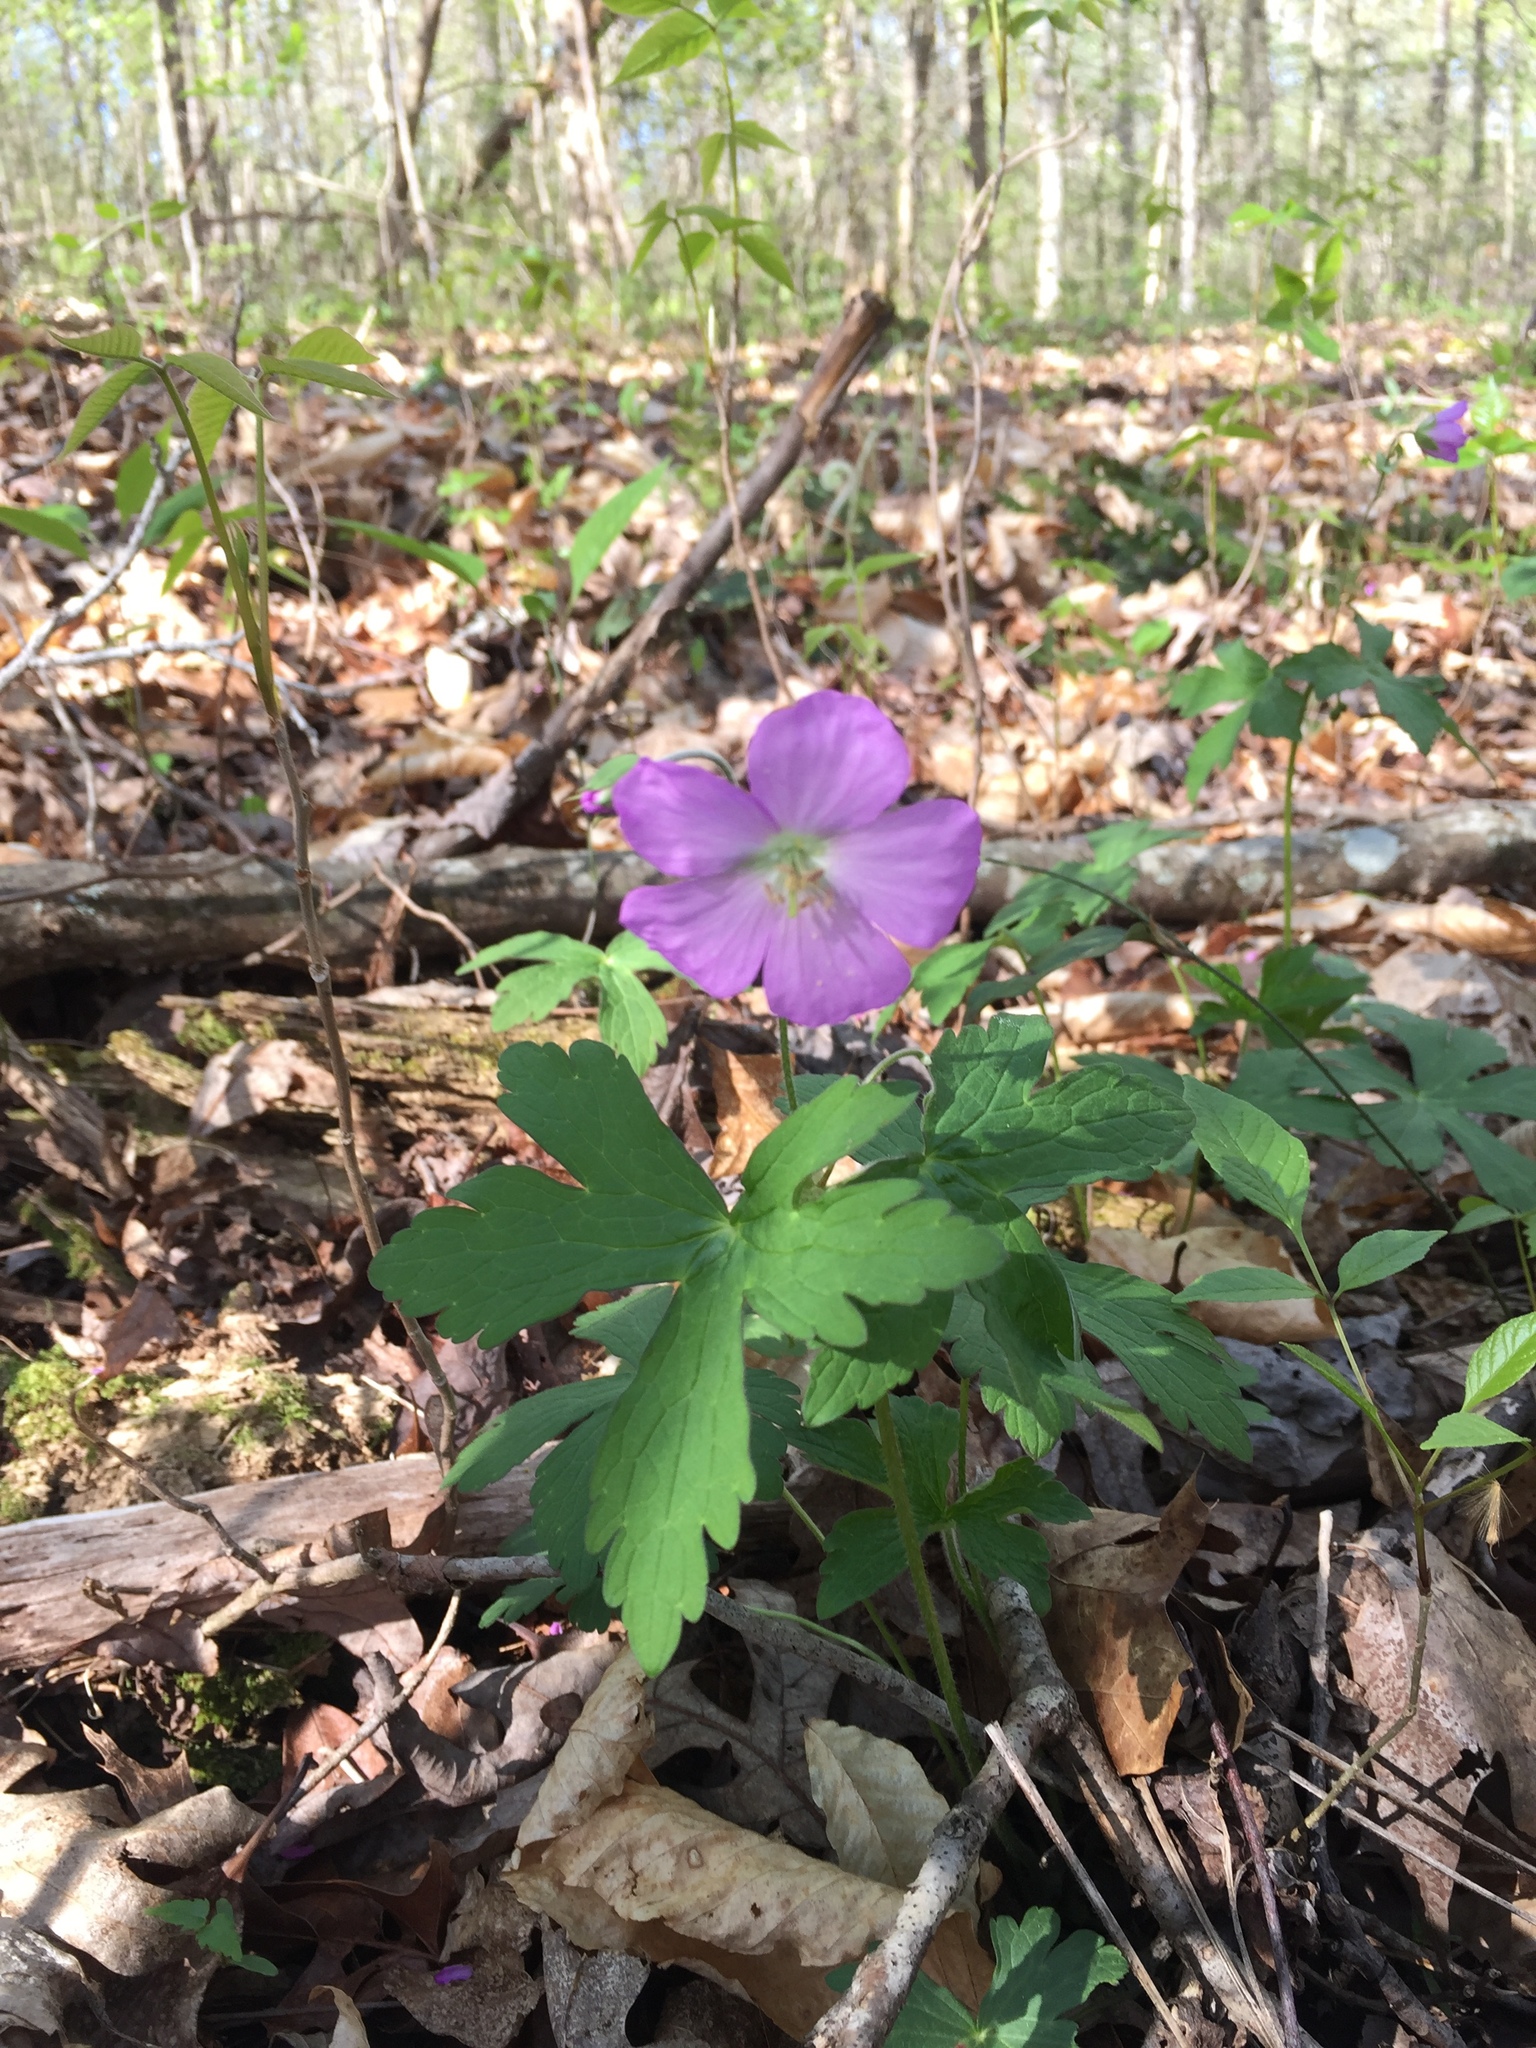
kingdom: Plantae
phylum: Tracheophyta
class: Magnoliopsida
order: Geraniales
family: Geraniaceae
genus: Geranium
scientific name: Geranium maculatum
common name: Spotted geranium
